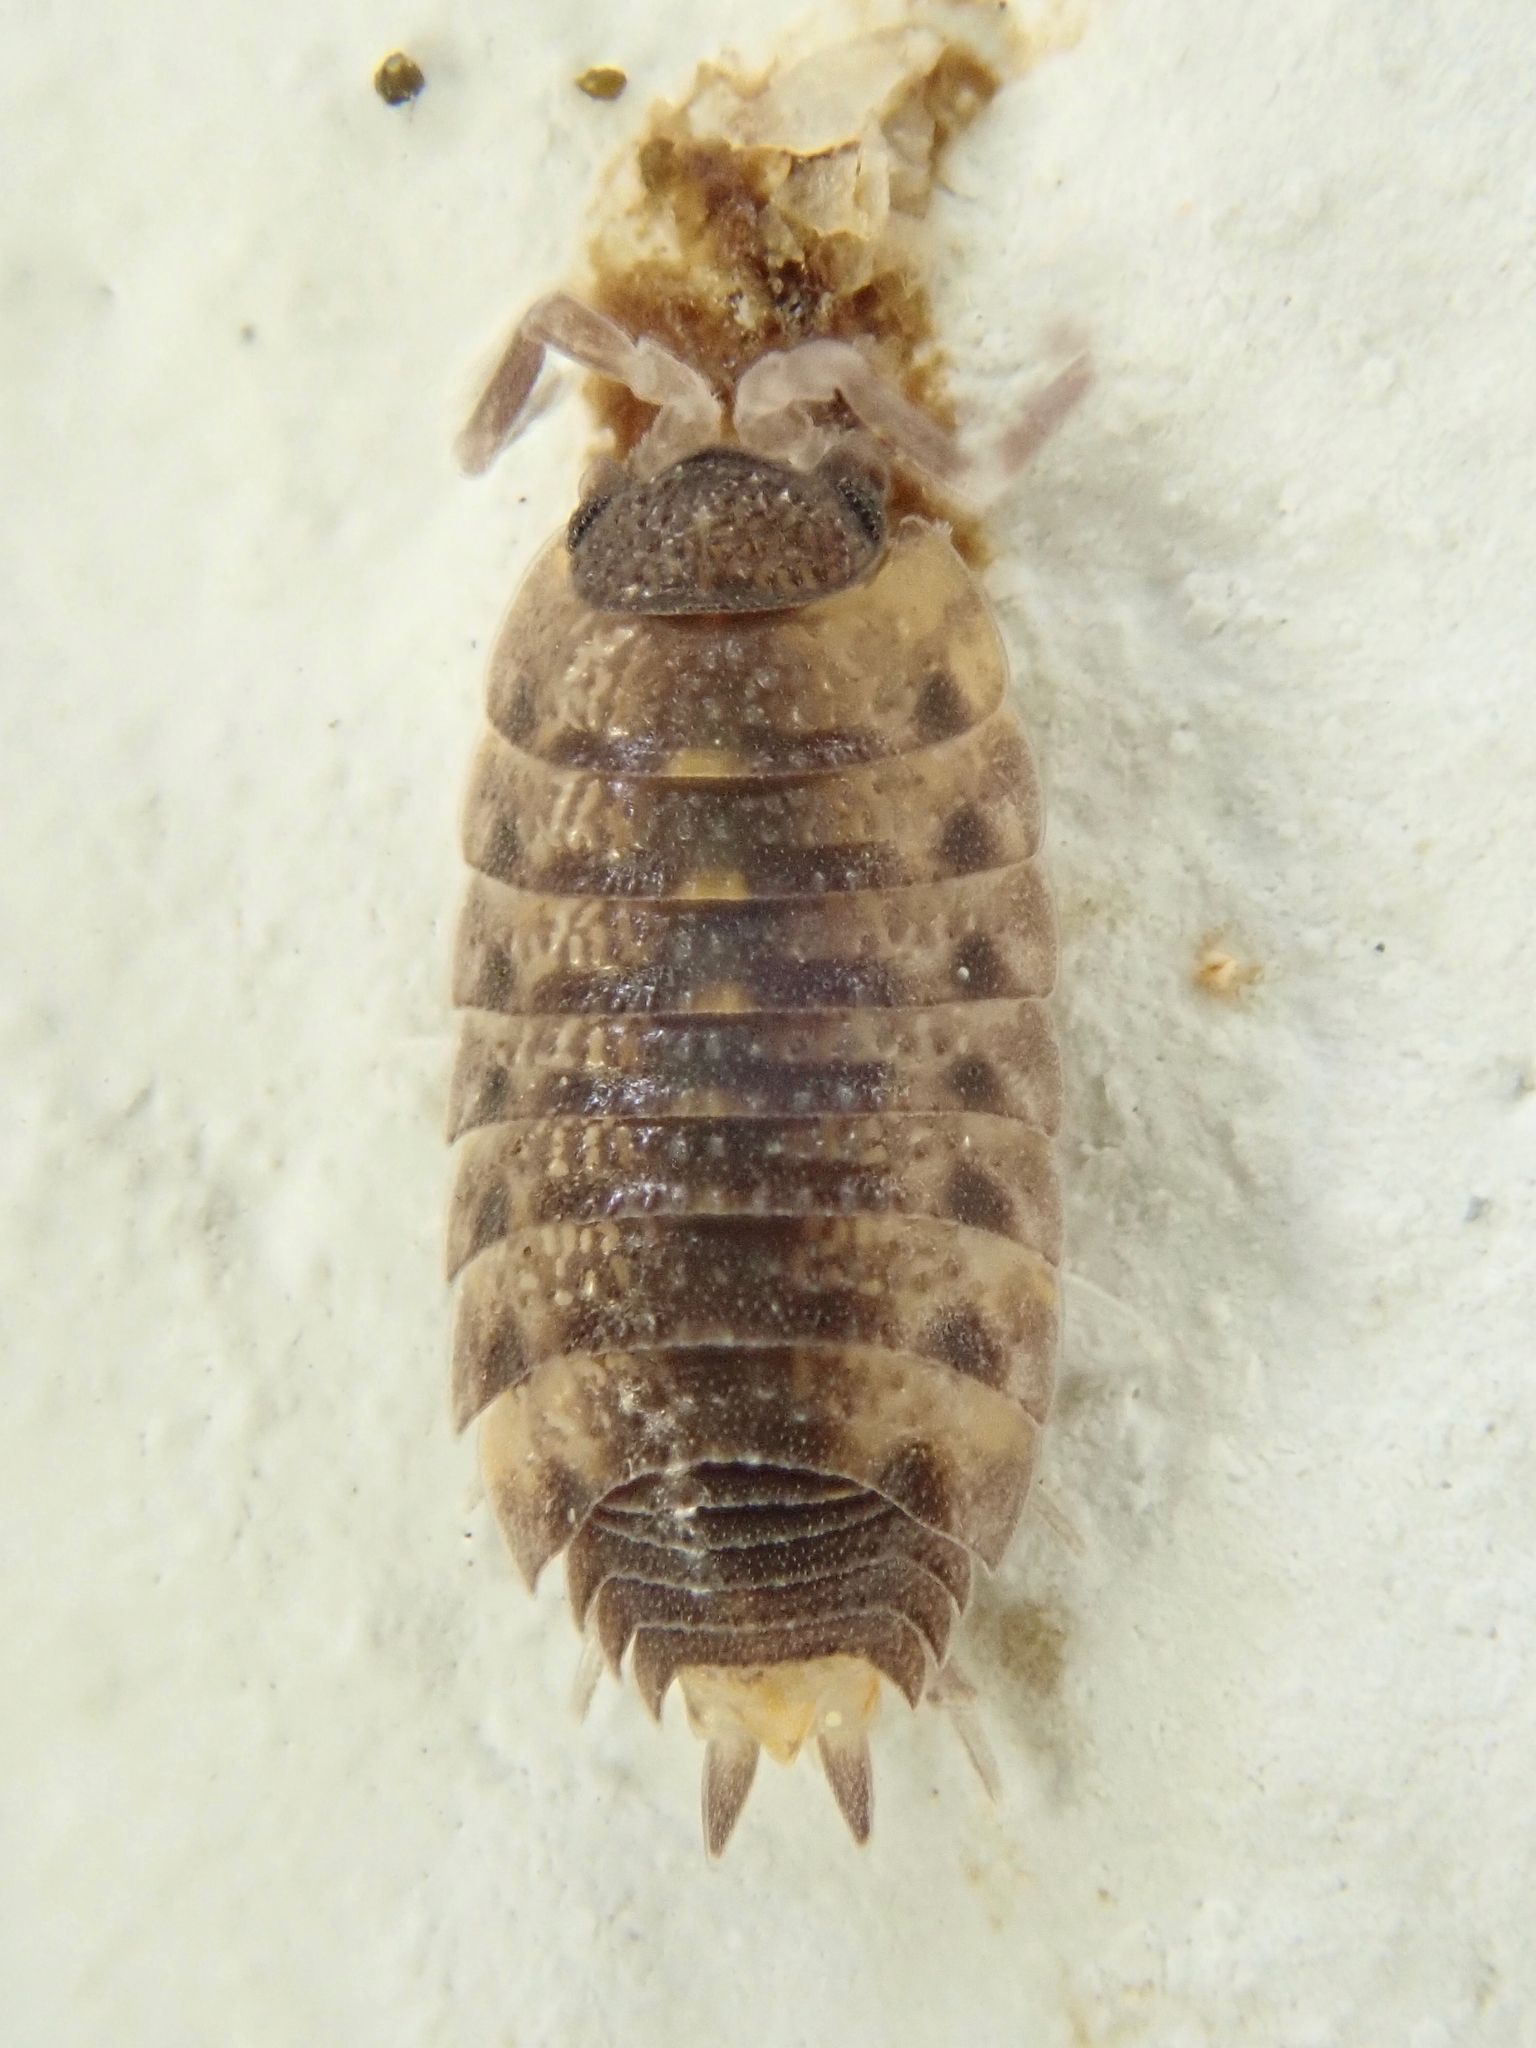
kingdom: Animalia
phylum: Arthropoda
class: Malacostraca
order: Isopoda
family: Porcellionidae
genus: Proporcellio
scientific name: Proporcellio vulcanius
